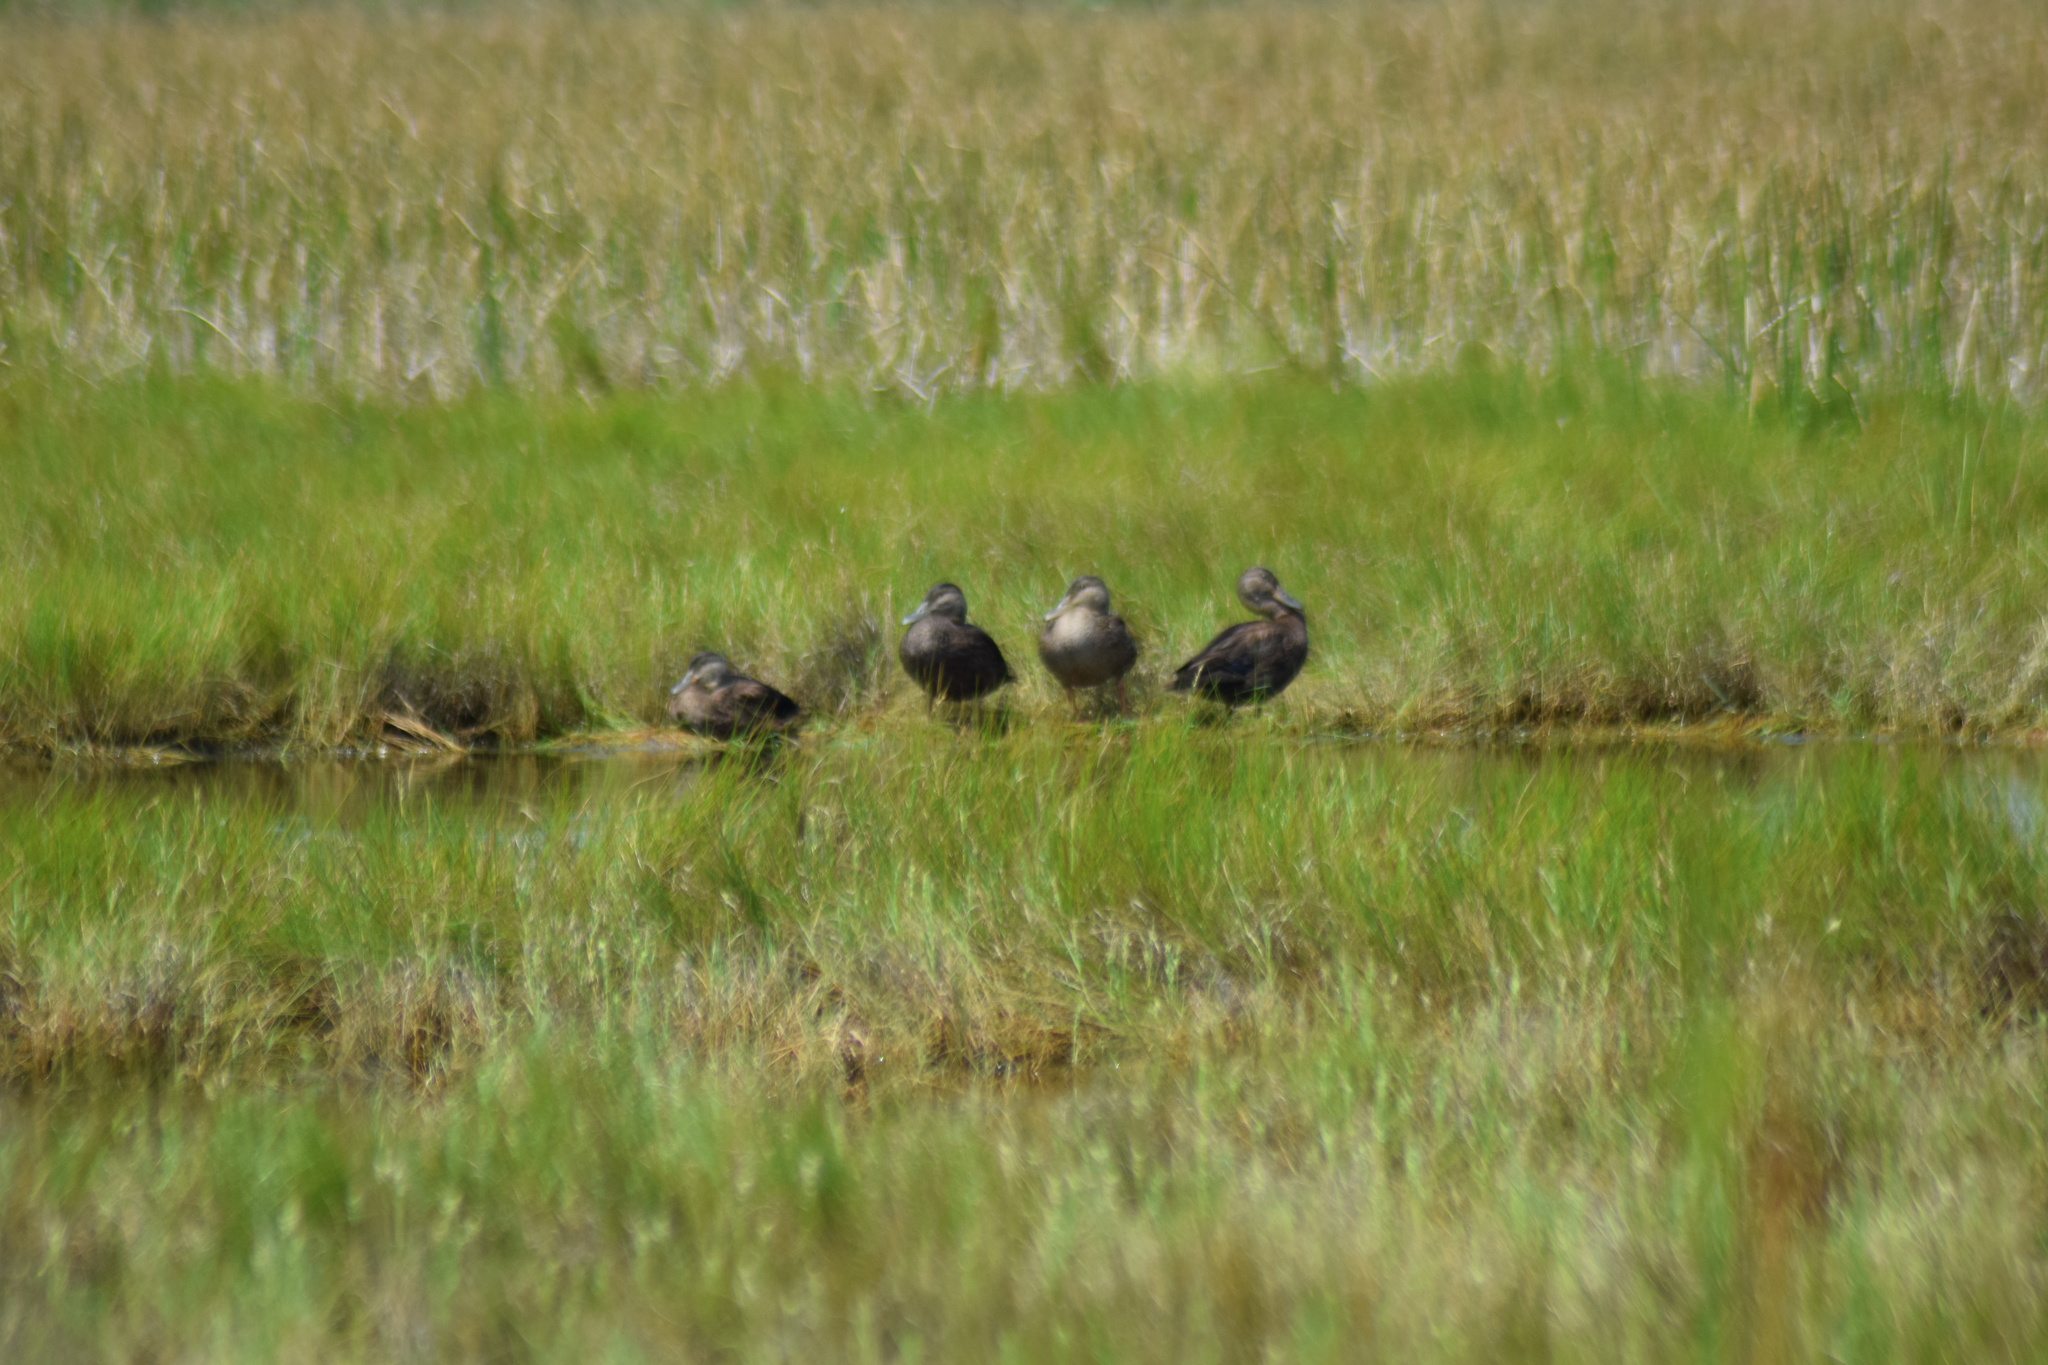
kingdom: Animalia
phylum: Chordata
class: Aves
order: Anseriformes
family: Anatidae
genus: Anas
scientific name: Anas rubripes
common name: American black duck
